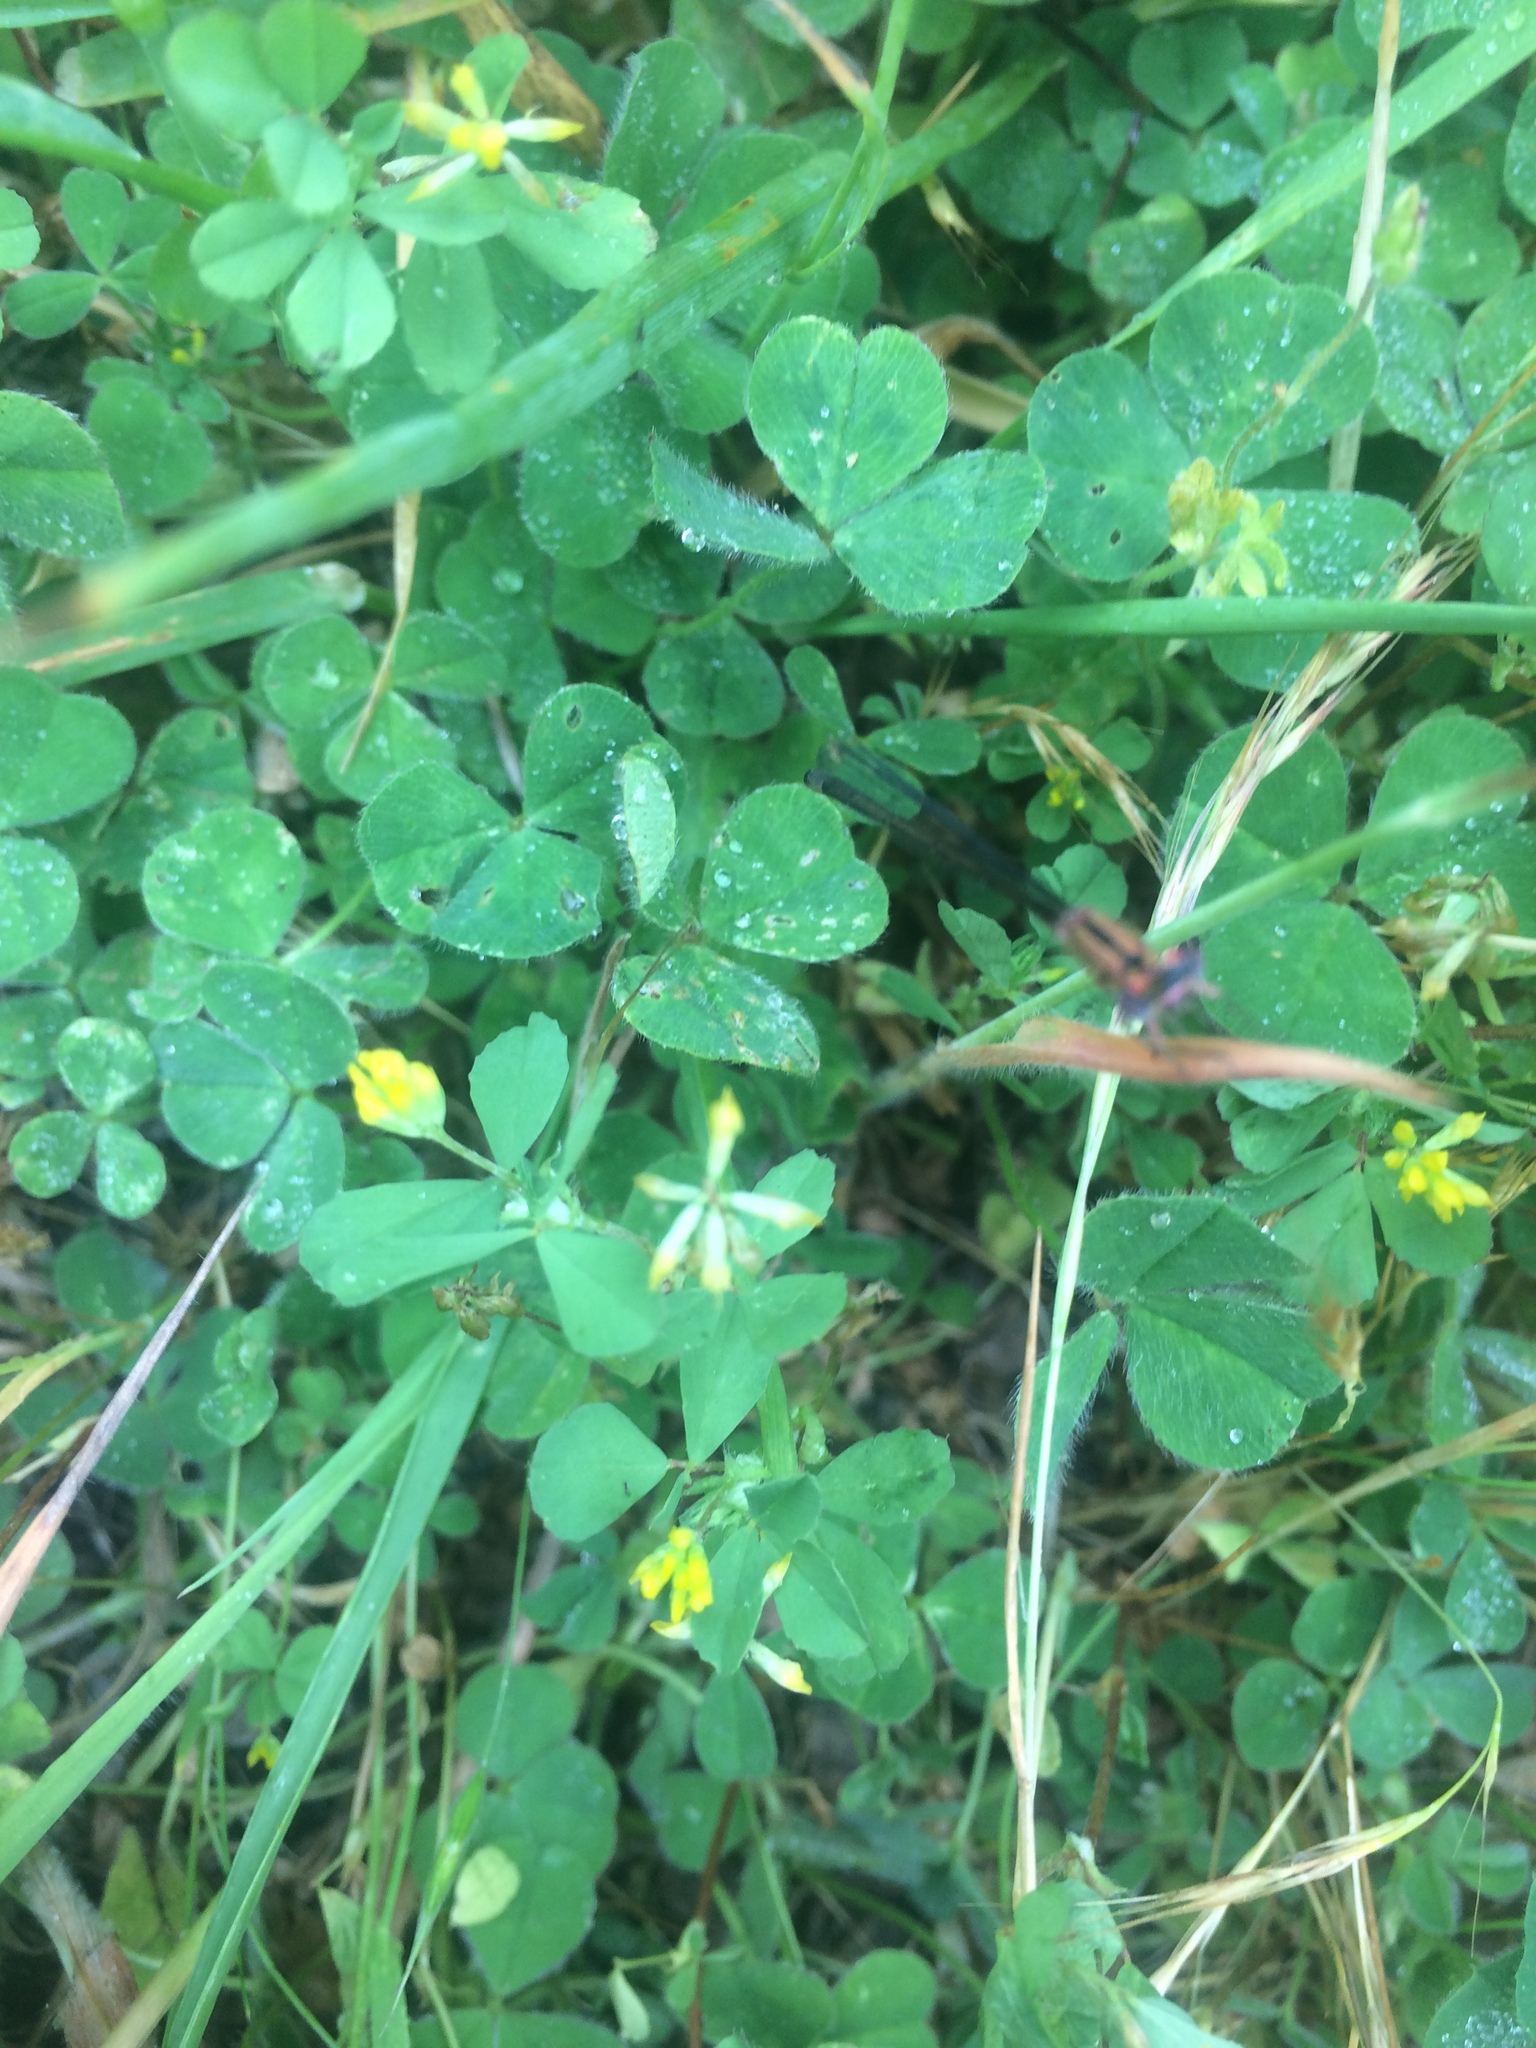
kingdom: Plantae
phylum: Tracheophyta
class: Magnoliopsida
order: Fabales
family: Fabaceae
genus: Trifolium
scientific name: Trifolium dubium
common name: Suckling clover
